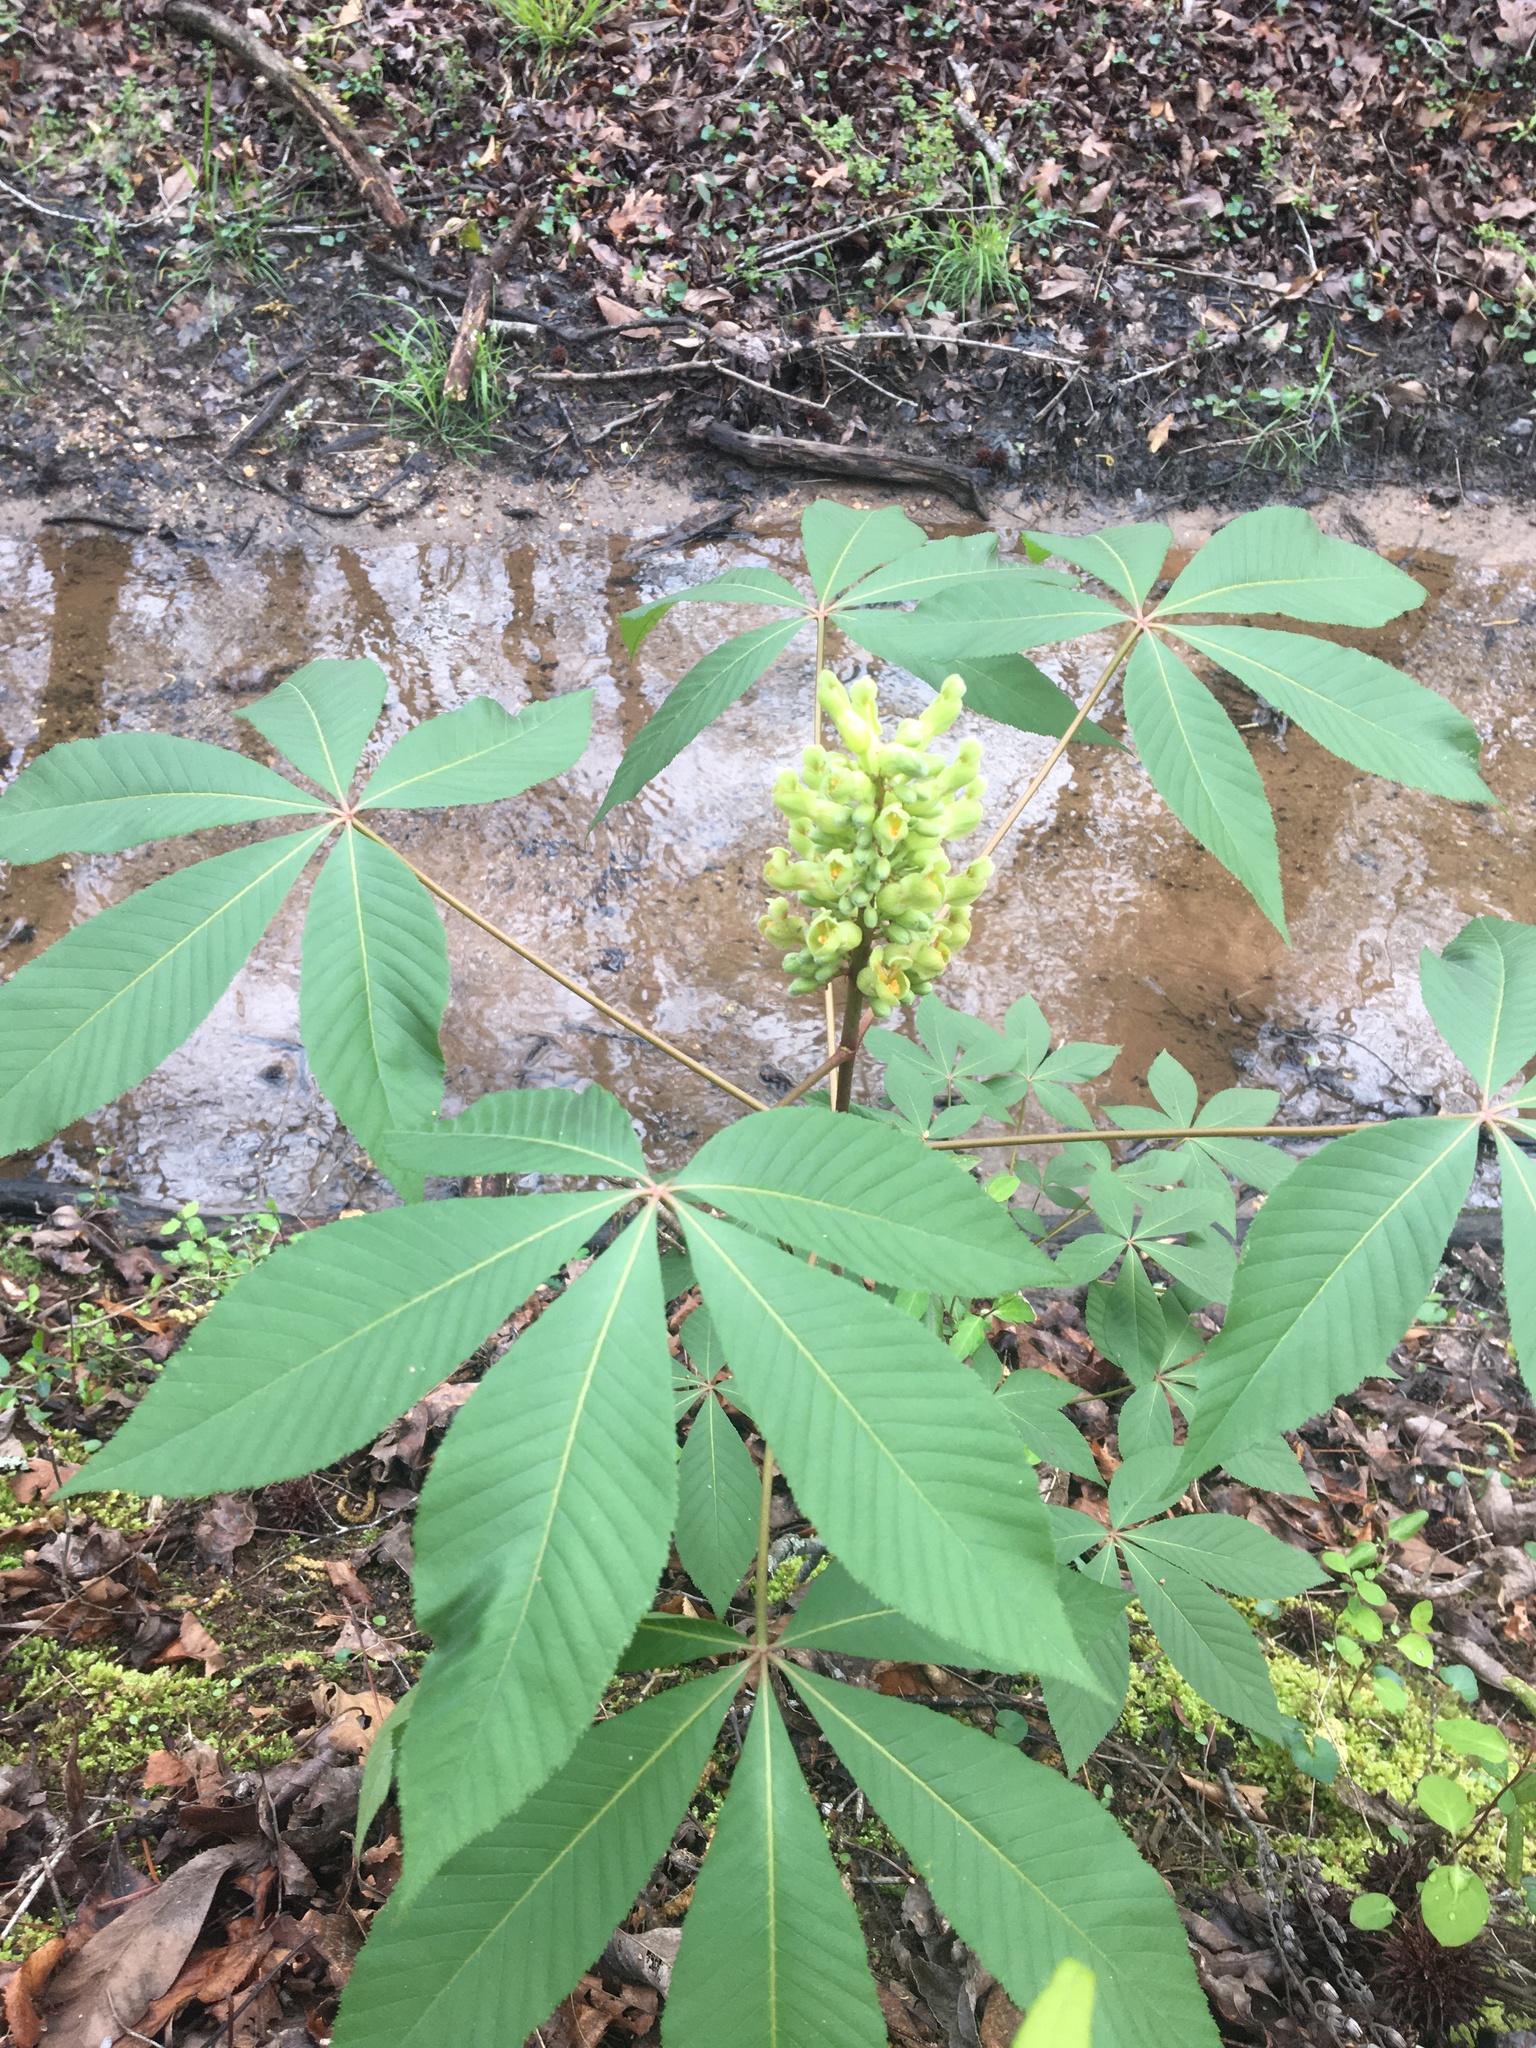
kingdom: Plantae
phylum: Tracheophyta
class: Magnoliopsida
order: Sapindales
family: Sapindaceae
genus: Aesculus
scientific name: Aesculus sylvatica
